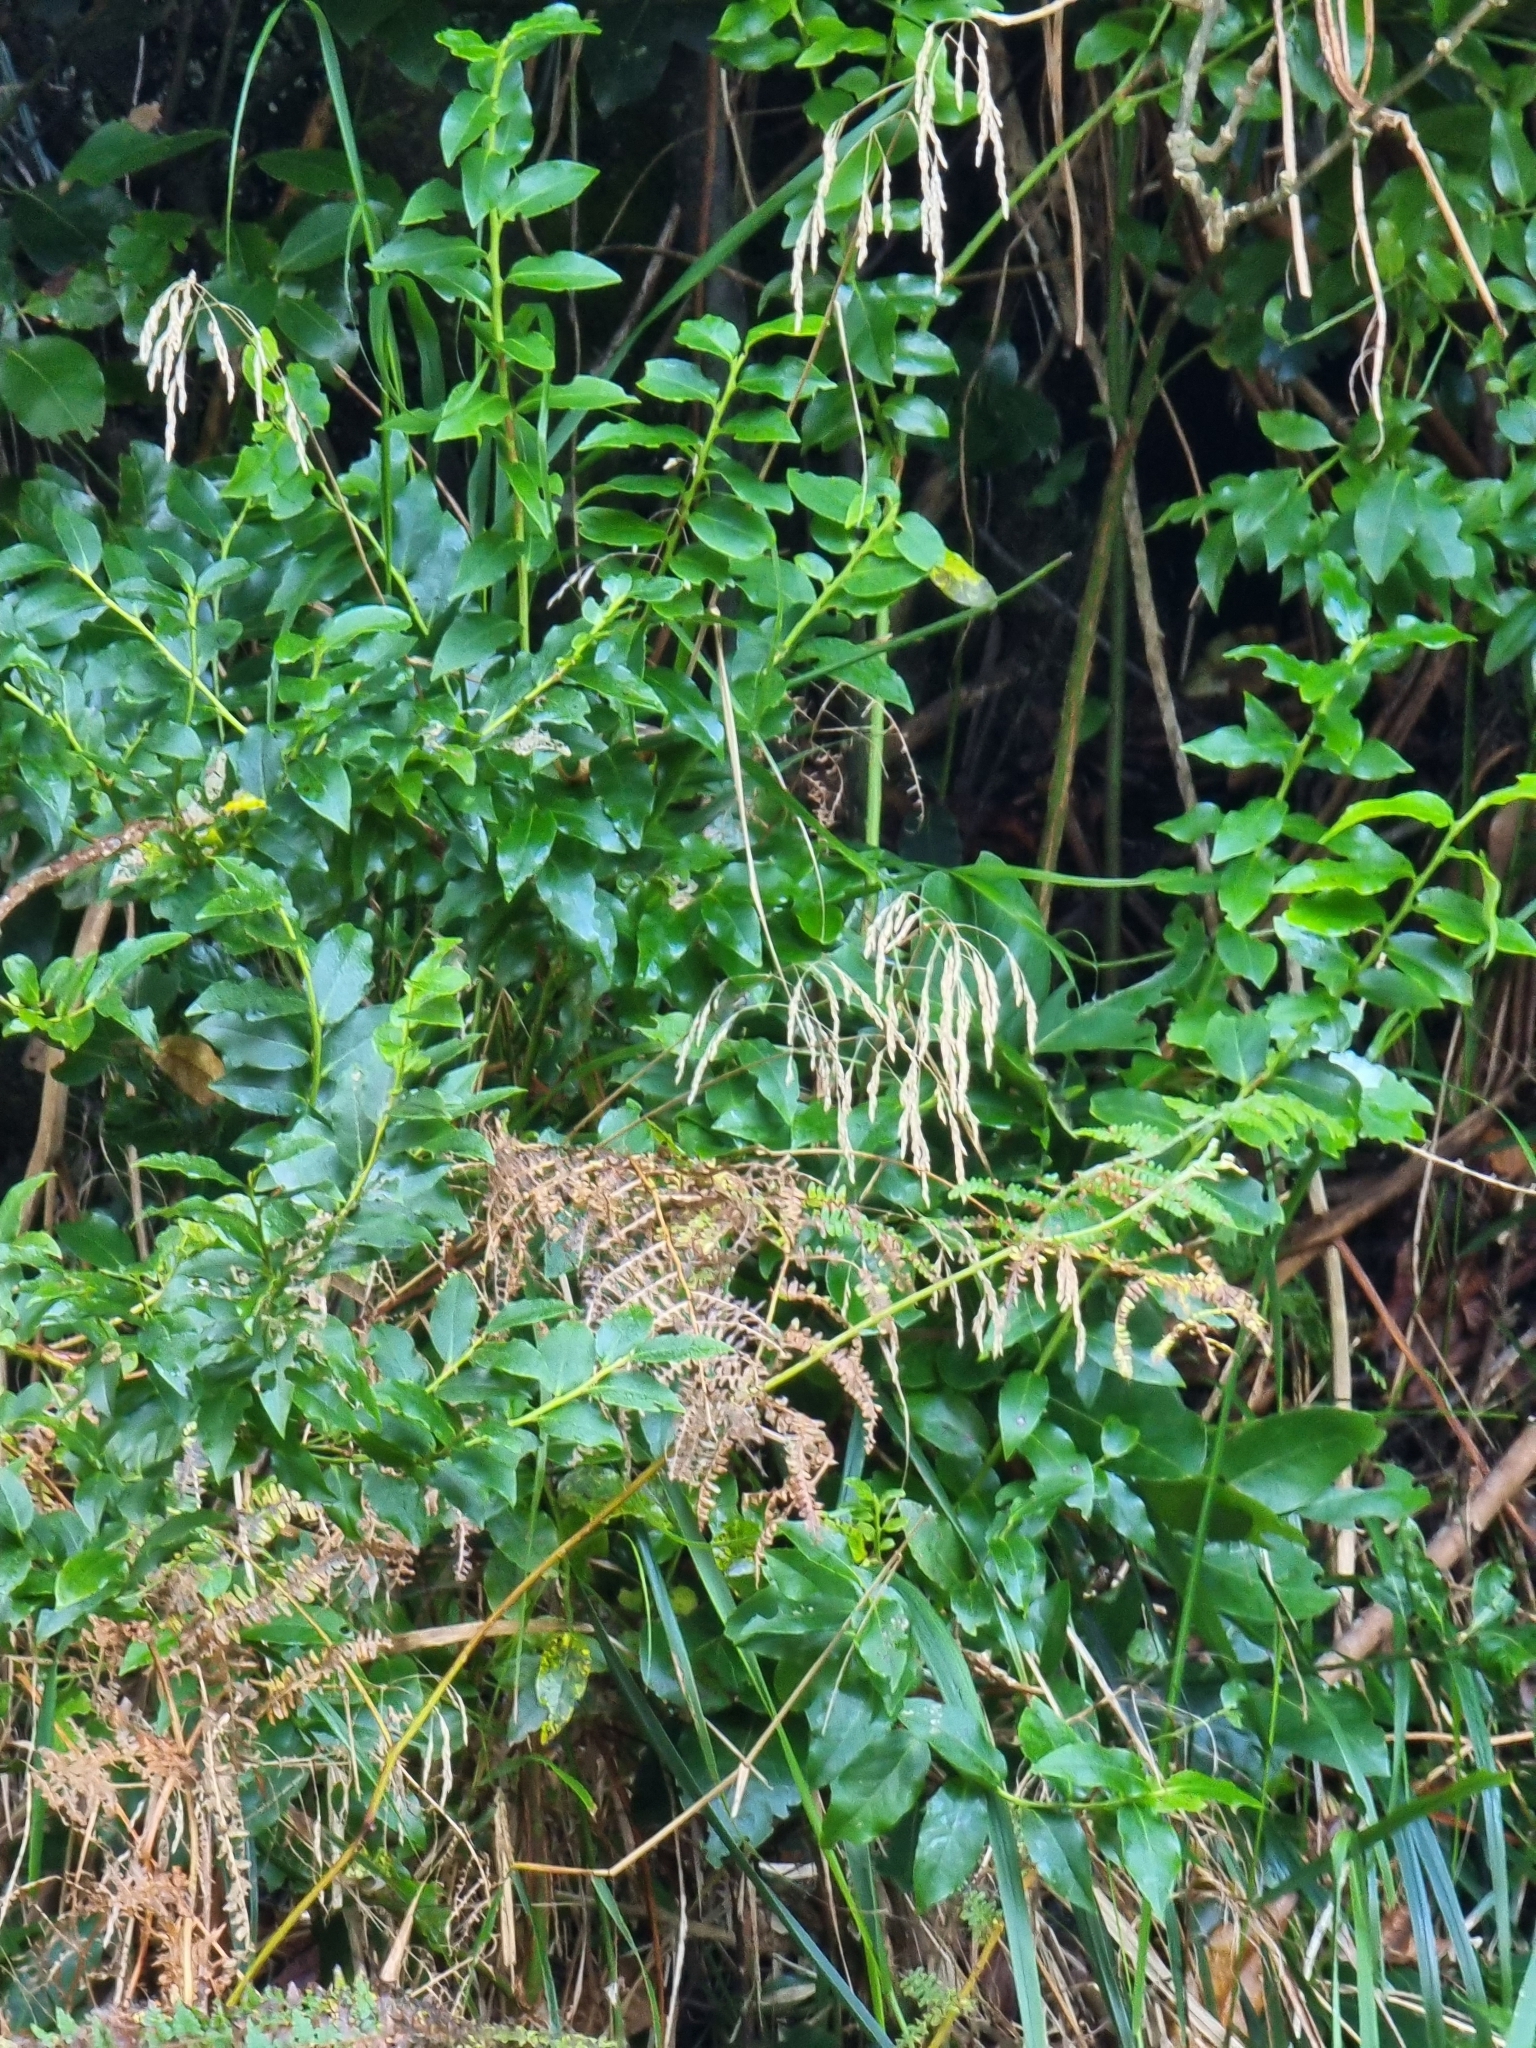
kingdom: Plantae
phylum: Tracheophyta
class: Magnoliopsida
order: Ericales
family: Ericaceae
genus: Vaccinium
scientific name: Vaccinium padifolium
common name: Madeiran blueberry
